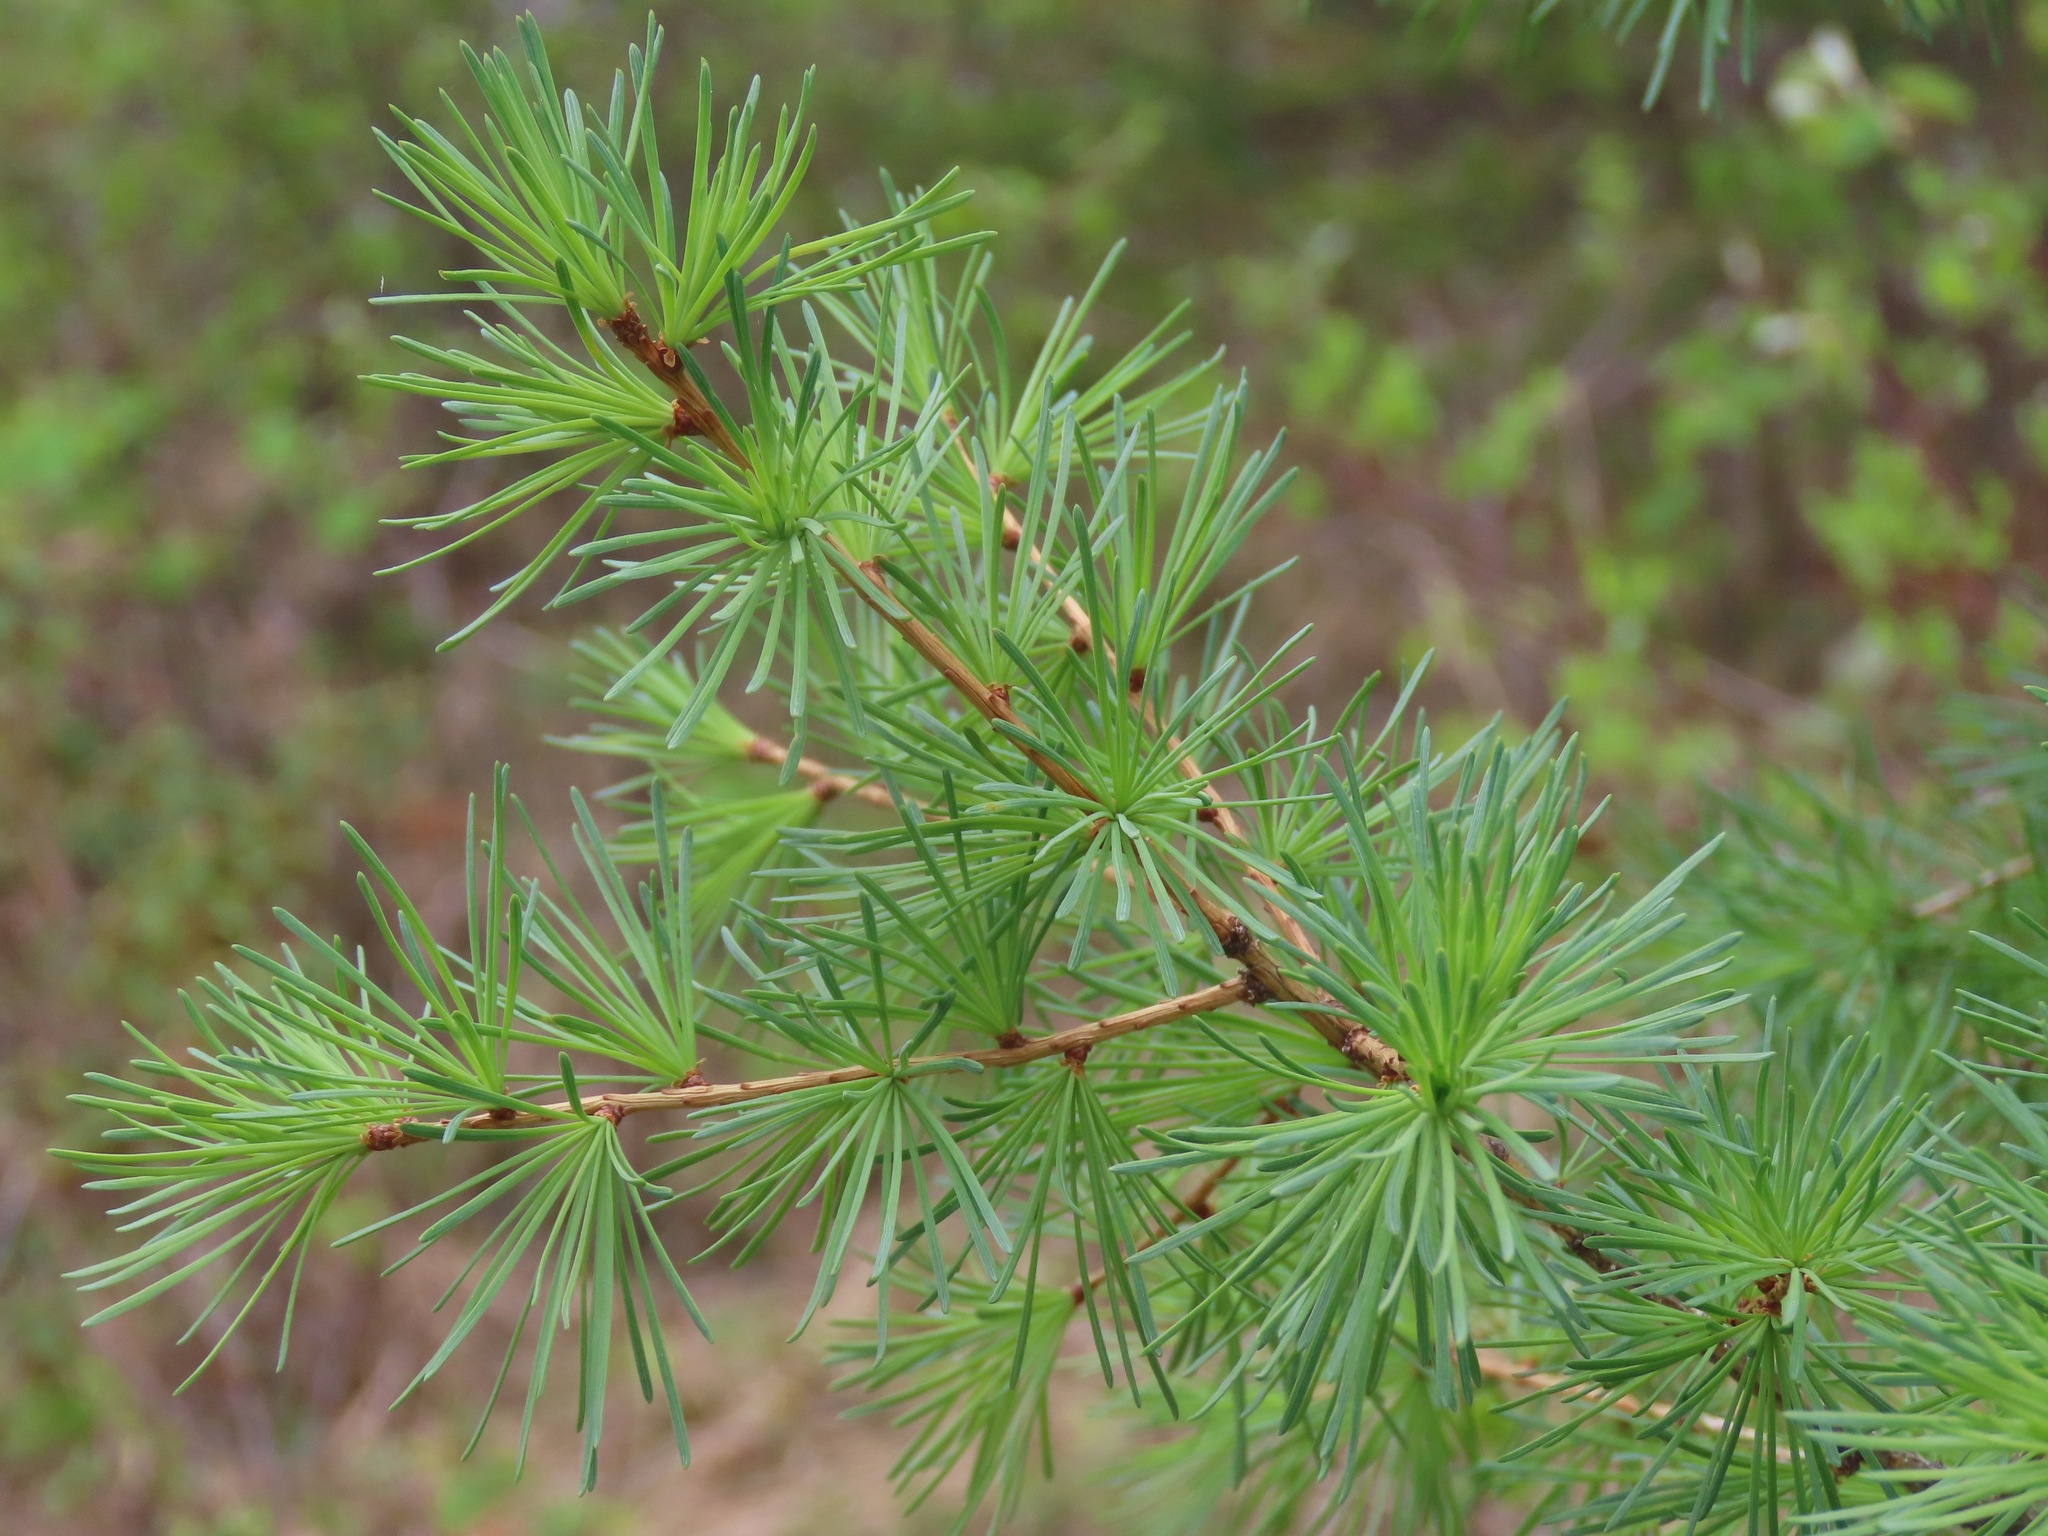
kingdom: Plantae
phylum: Tracheophyta
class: Pinopsida
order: Pinales
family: Pinaceae
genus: Larix
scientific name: Larix occidentalis
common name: Western larch
